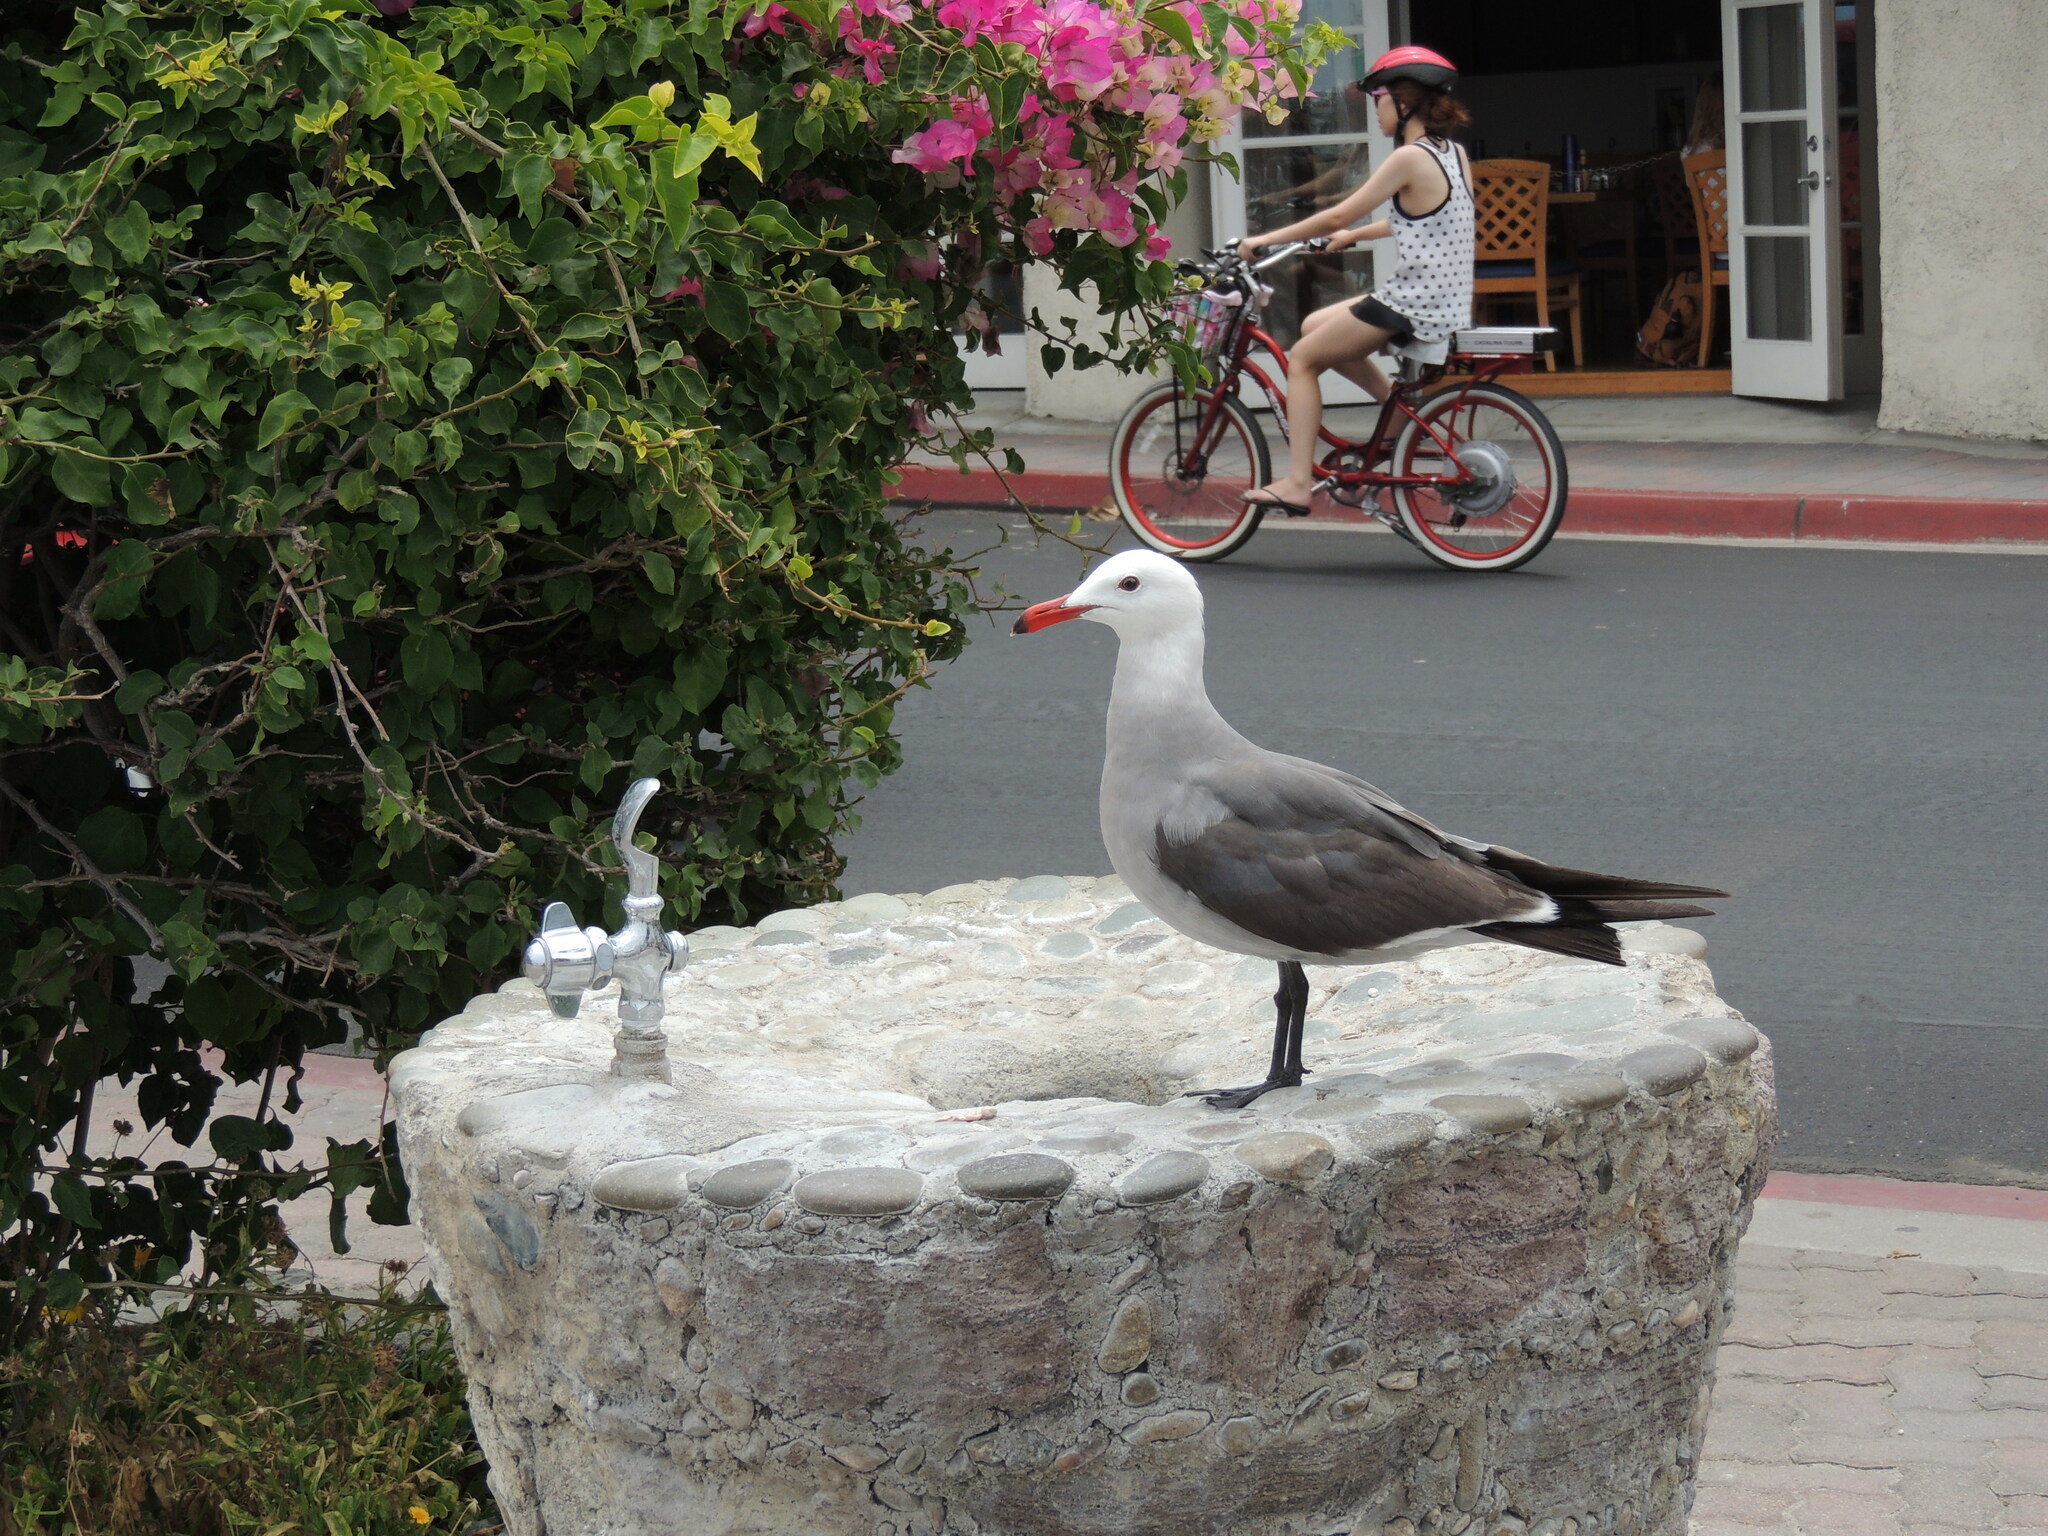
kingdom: Animalia
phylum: Chordata
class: Aves
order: Charadriiformes
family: Laridae
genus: Larus
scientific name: Larus heermanni
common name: Heermann's gull
